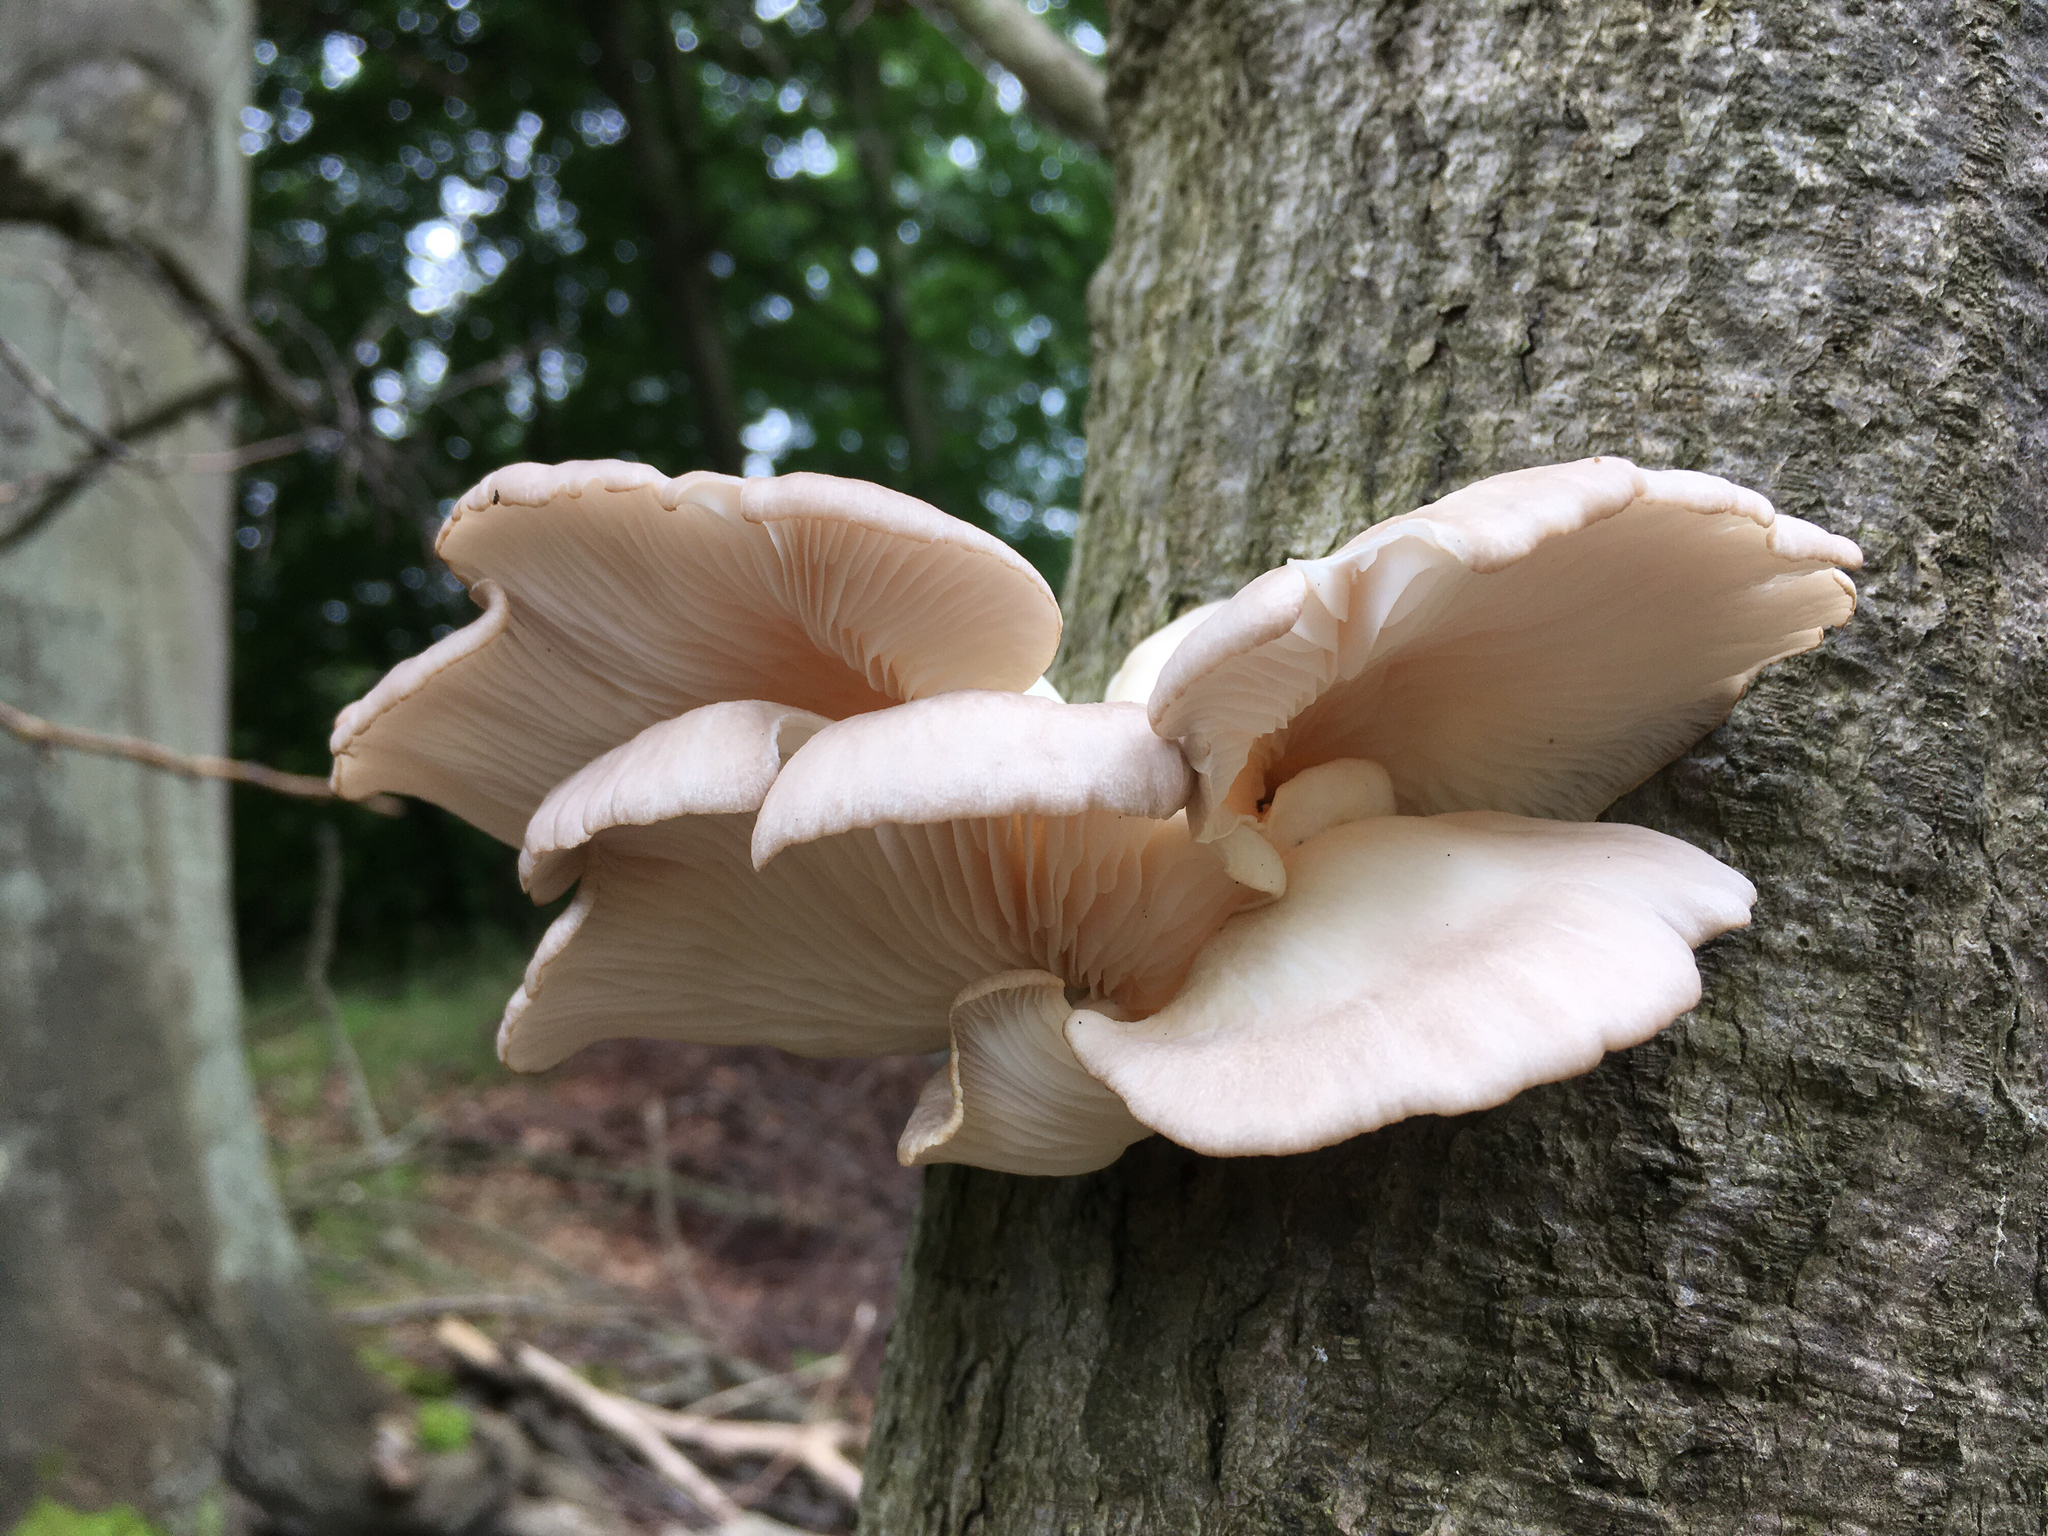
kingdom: Fungi
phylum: Basidiomycota
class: Agaricomycetes
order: Agaricales
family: Pleurotaceae
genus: Pleurotus
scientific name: Pleurotus pulmonarius
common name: Pale oyster
